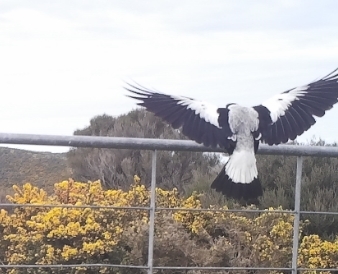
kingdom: Animalia
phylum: Chordata
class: Aves
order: Passeriformes
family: Cracticidae
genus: Gymnorhina
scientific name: Gymnorhina tibicen
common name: Australian magpie
